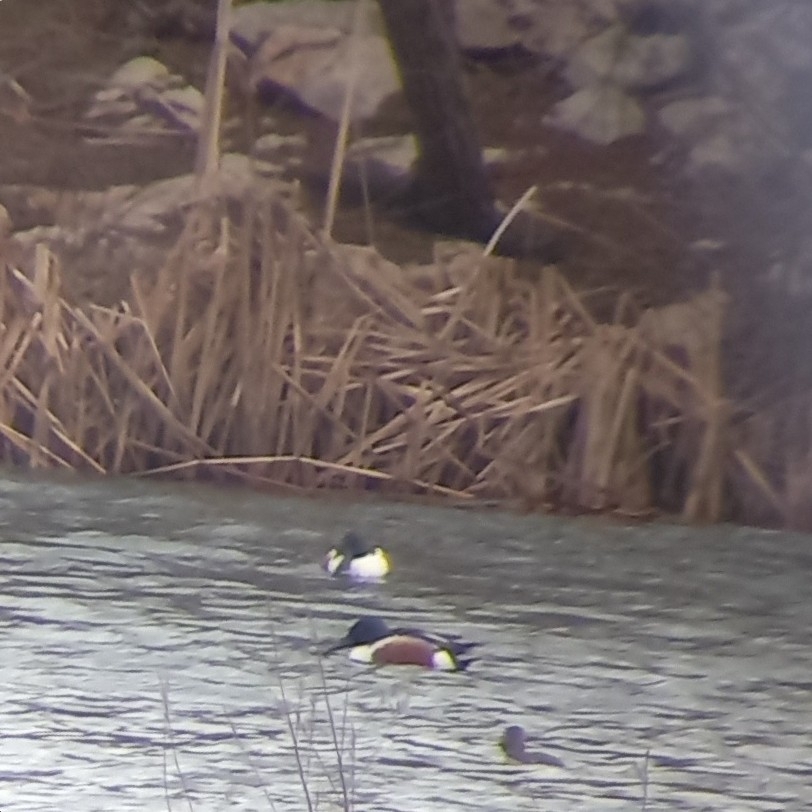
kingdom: Animalia
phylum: Chordata
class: Aves
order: Anseriformes
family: Anatidae
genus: Spatula
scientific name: Spatula clypeata
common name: Northern shoveler
